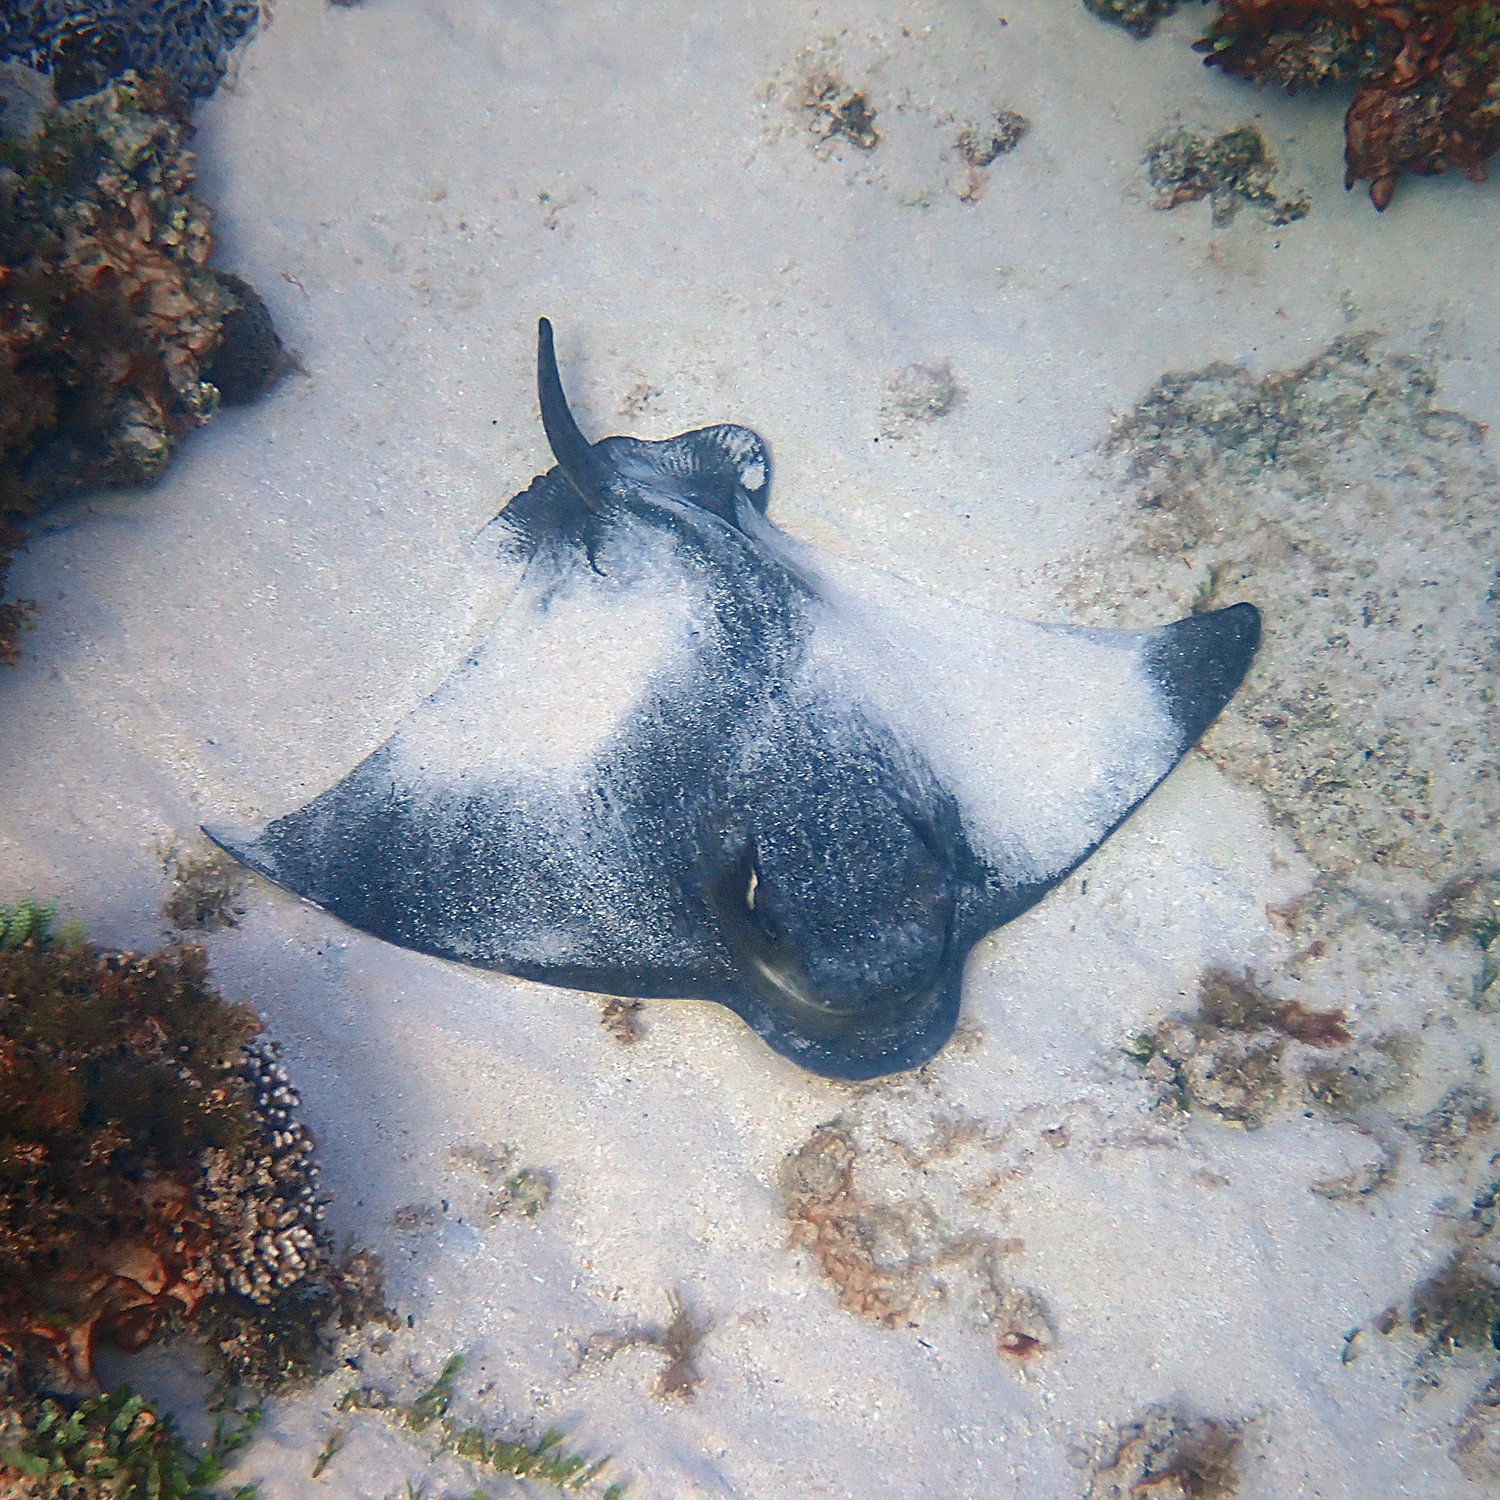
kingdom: Animalia
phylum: Chordata
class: Elasmobranchii
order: Myliobatiformes
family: Myliobatidae
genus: Myliobatis
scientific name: Myliobatis tenuicaudatus
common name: Eagle ray
